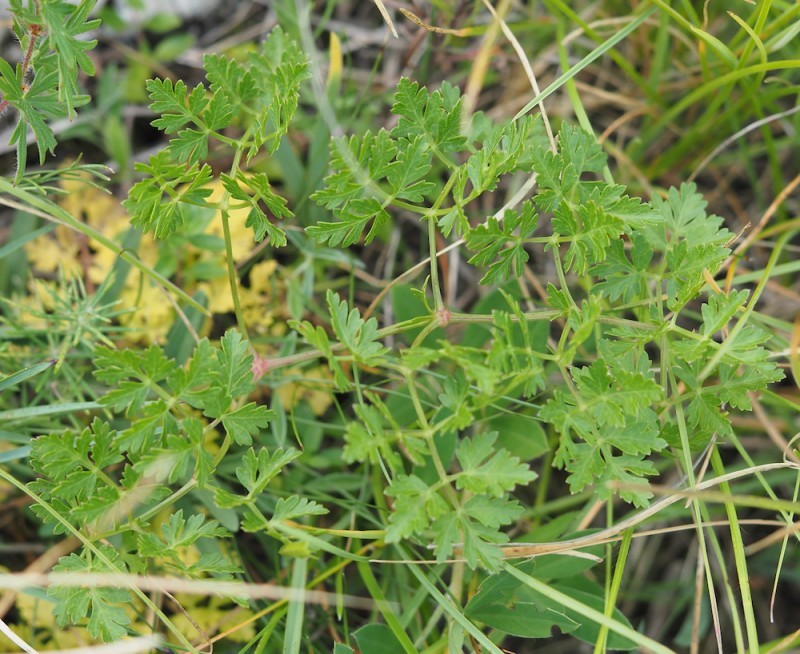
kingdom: Plantae
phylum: Tracheophyta
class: Magnoliopsida
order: Apiales
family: Apiaceae
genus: Oreoselinum
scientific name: Oreoselinum nigrum
